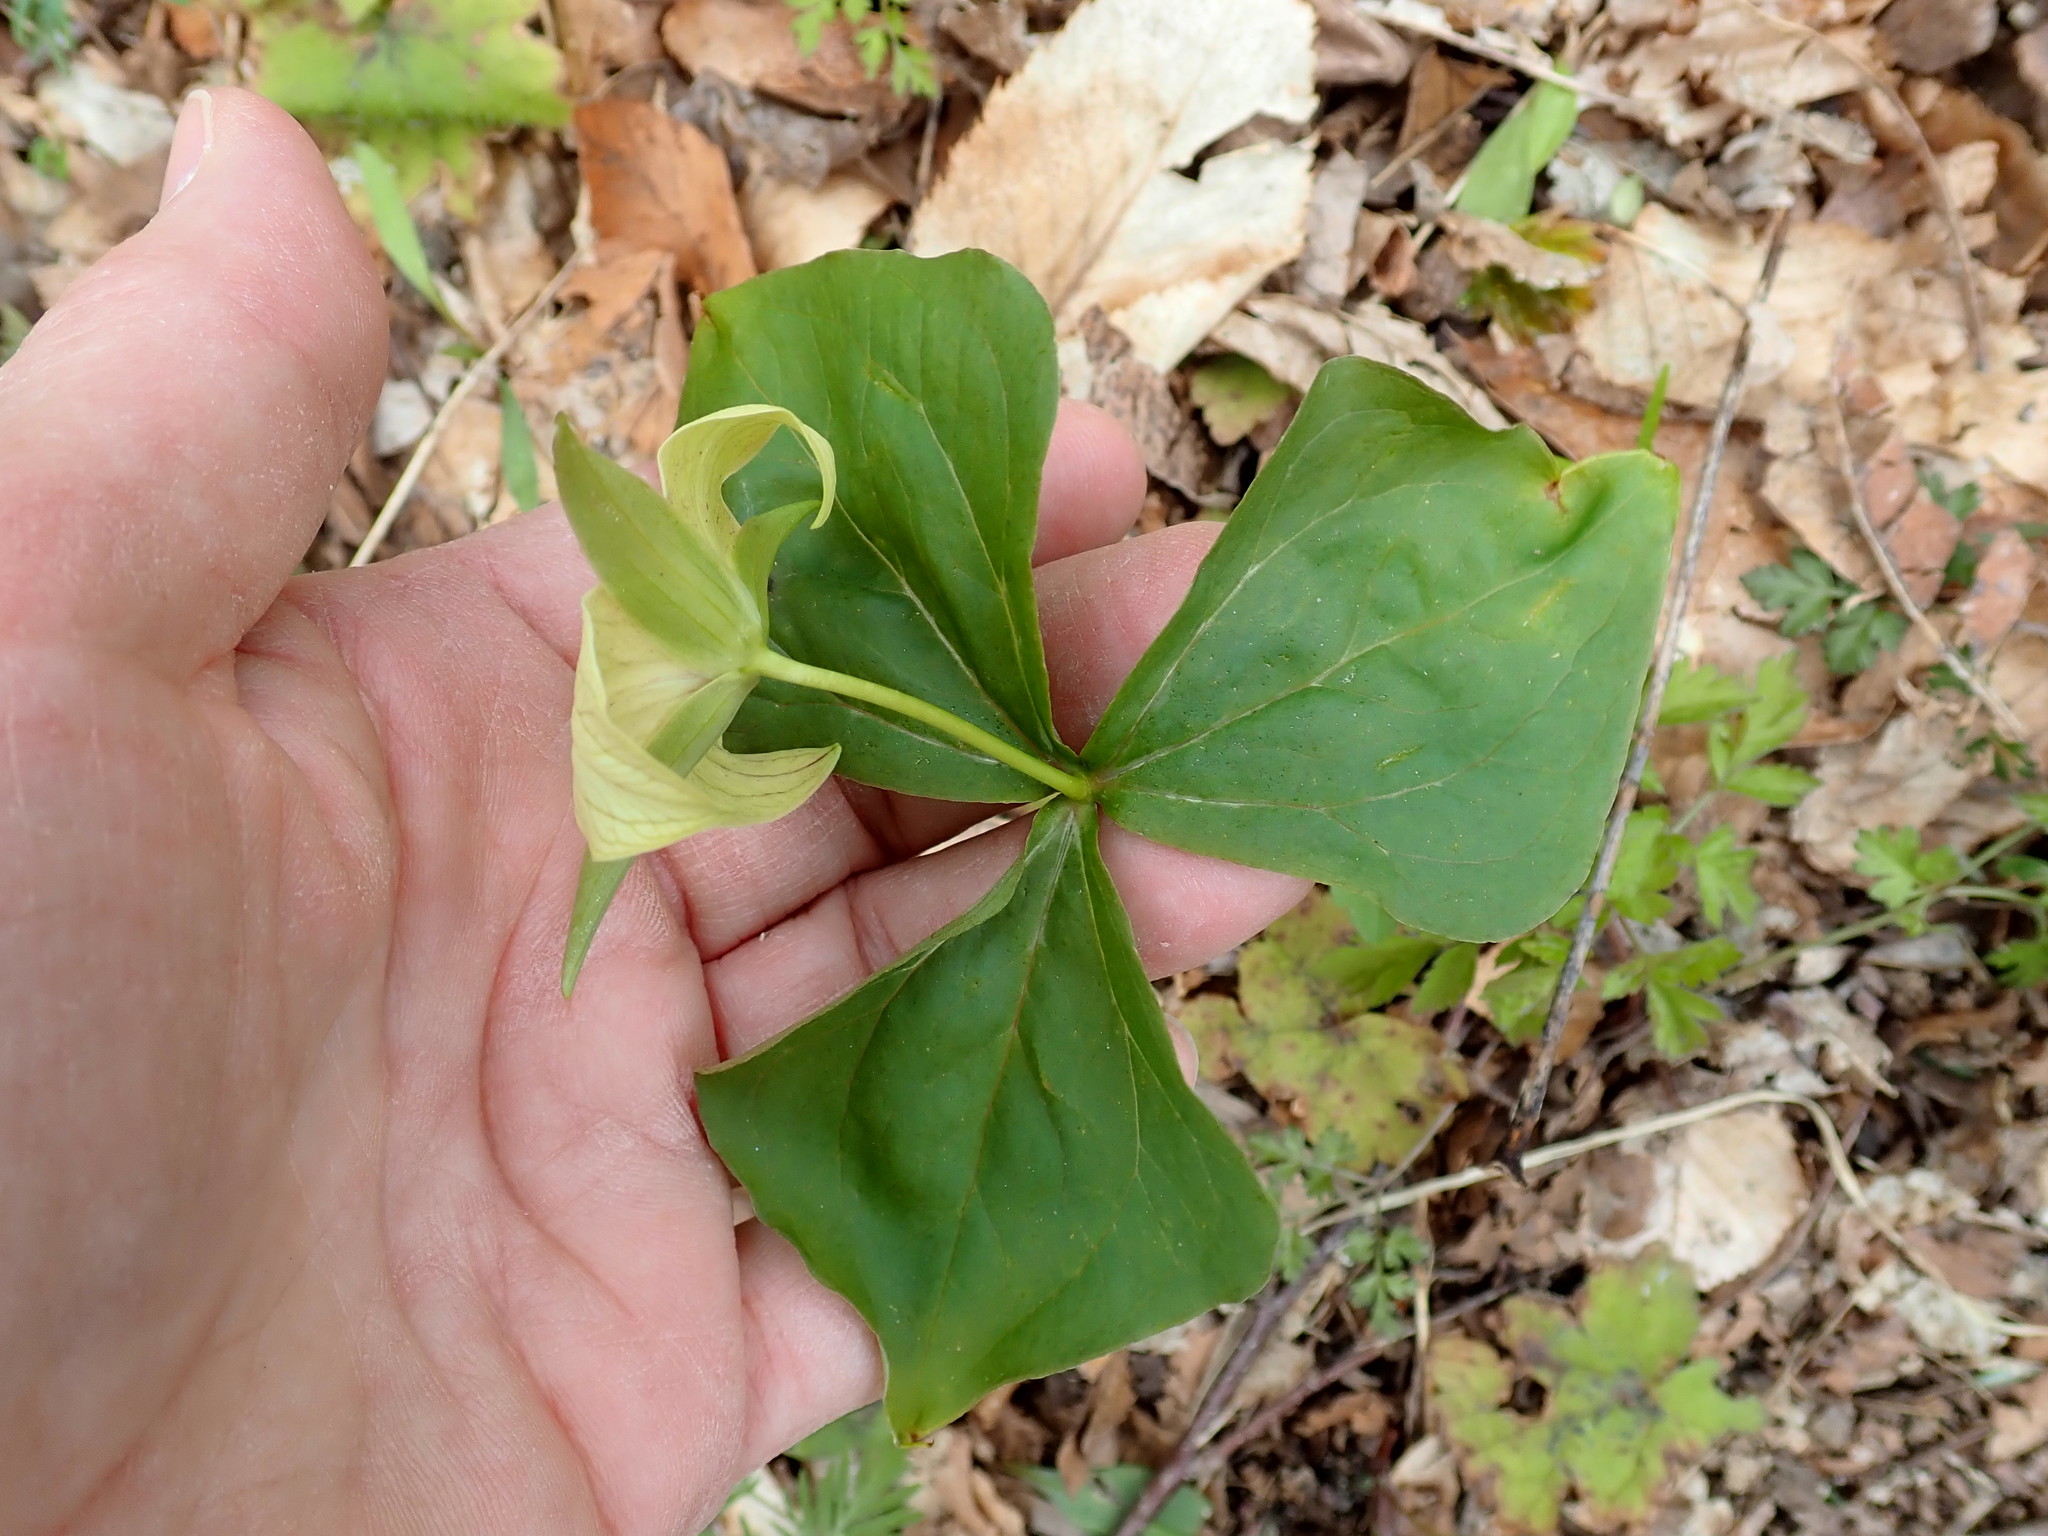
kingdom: Plantae
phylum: Tracheophyta
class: Liliopsida
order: Liliales
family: Melanthiaceae
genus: Trillium
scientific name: Trillium erectum
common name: Purple trillium
